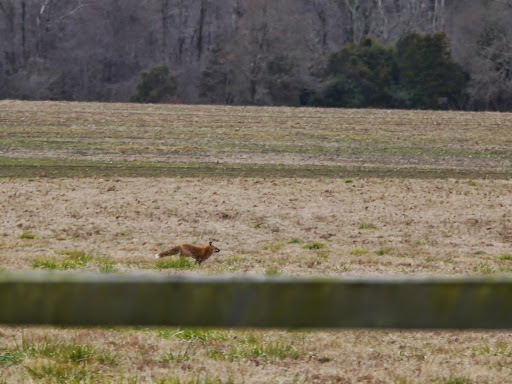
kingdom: Animalia
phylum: Chordata
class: Mammalia
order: Carnivora
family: Canidae
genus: Vulpes
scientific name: Vulpes vulpes
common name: Red fox
